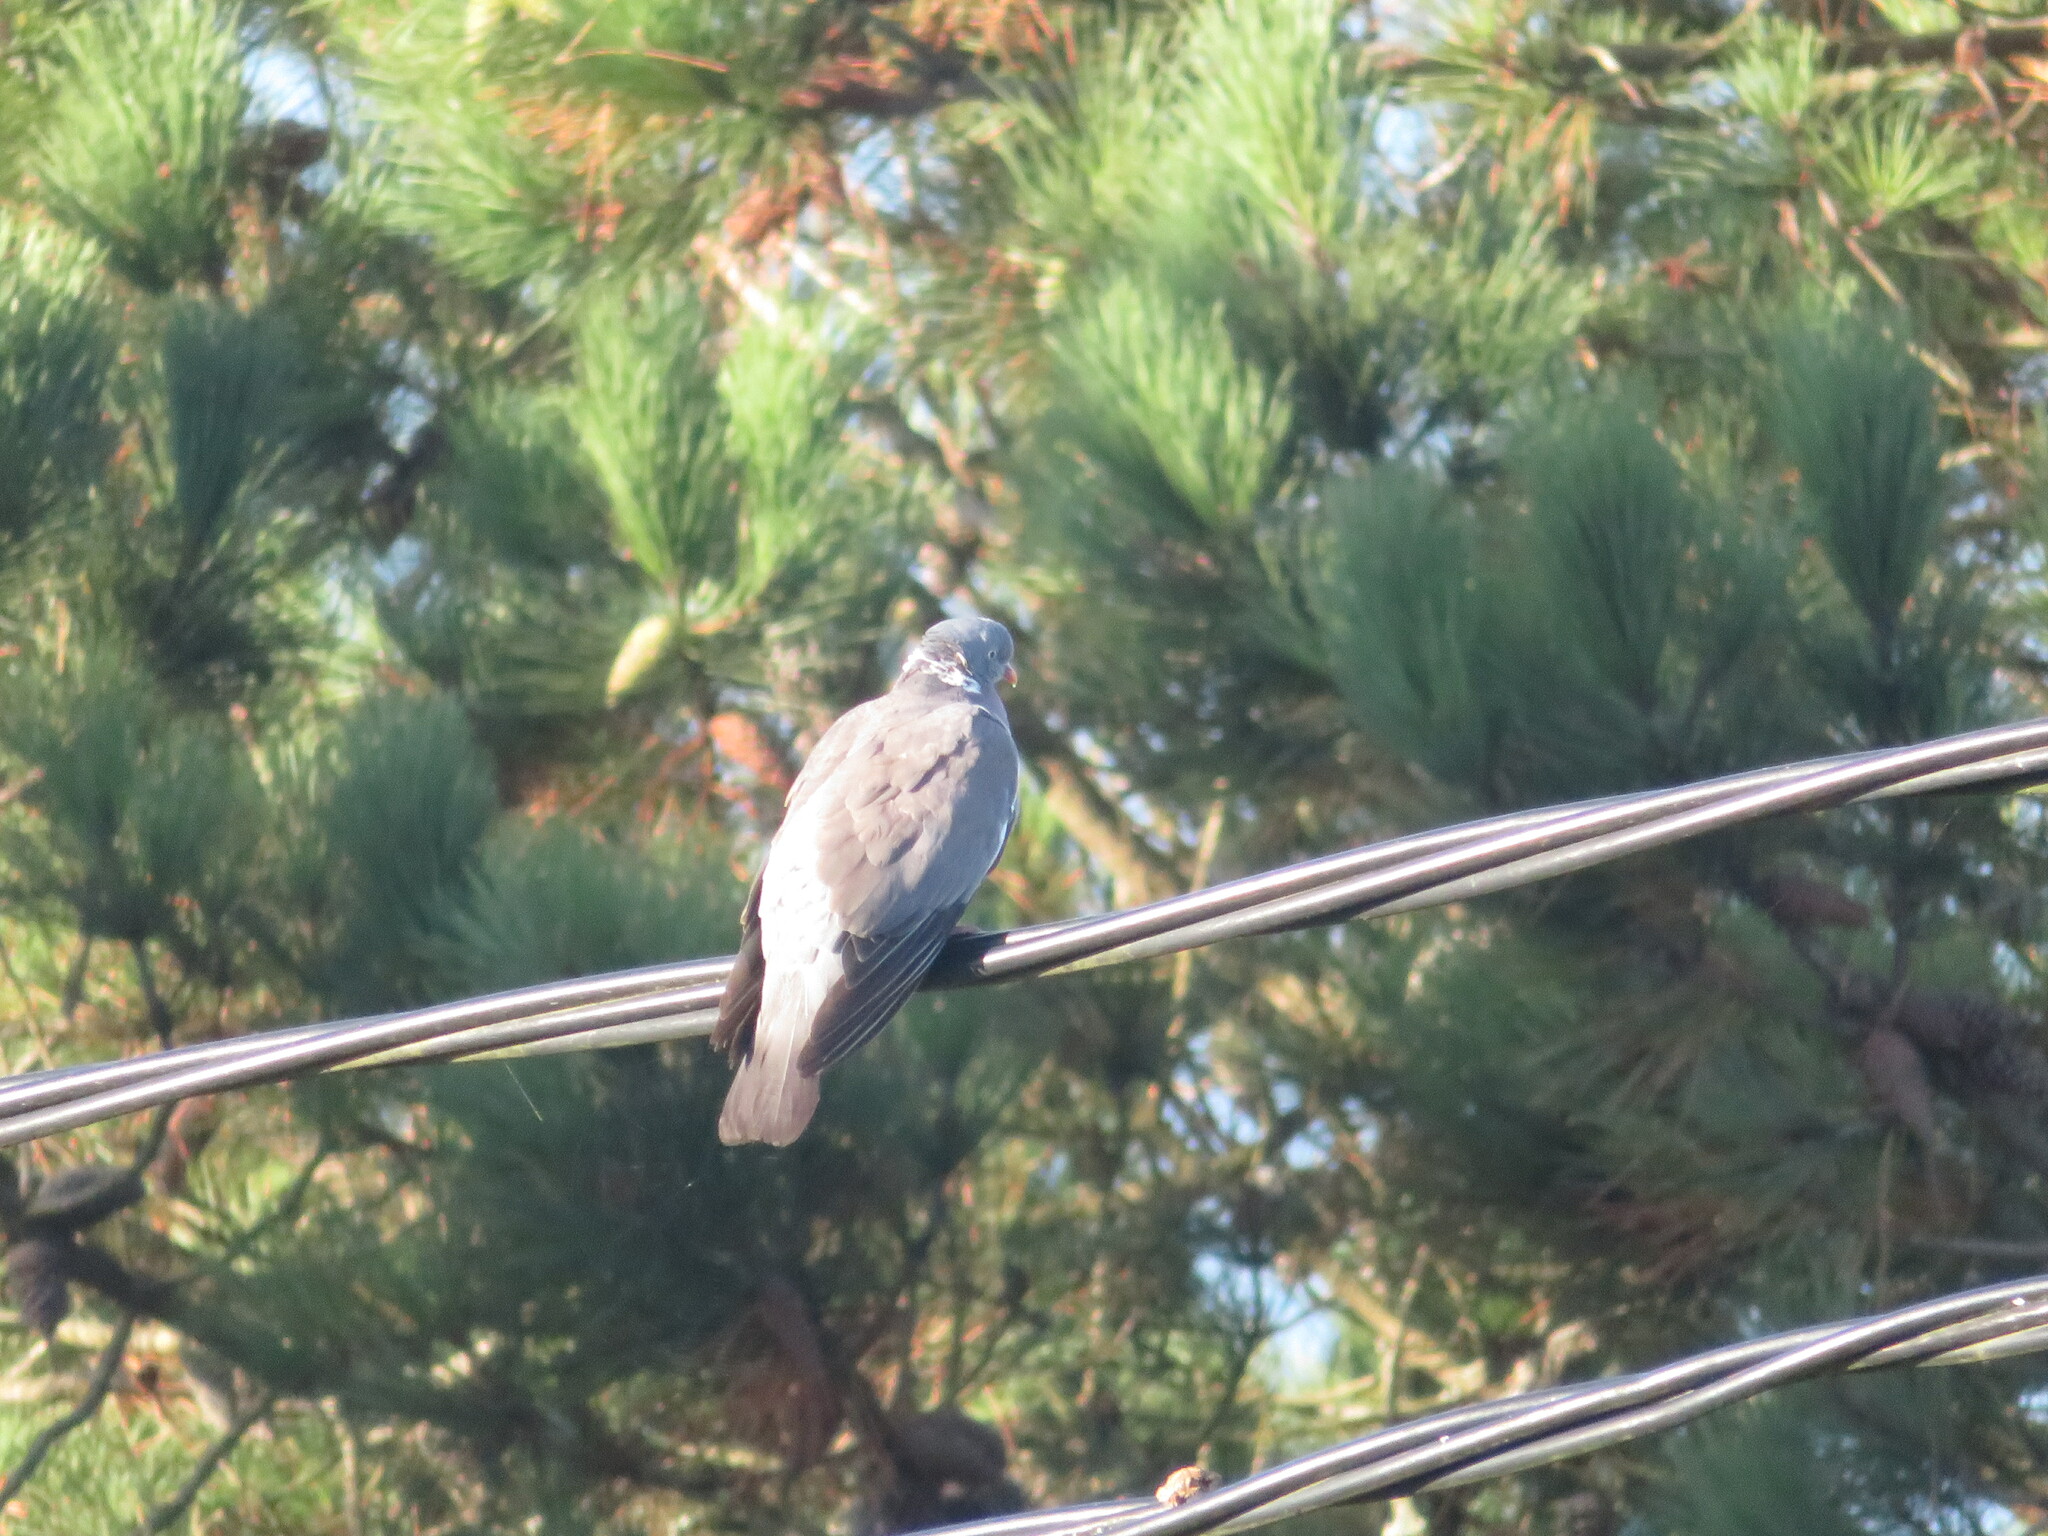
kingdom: Animalia
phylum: Chordata
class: Aves
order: Columbiformes
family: Columbidae
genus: Columba
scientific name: Columba palumbus
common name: Common wood pigeon
